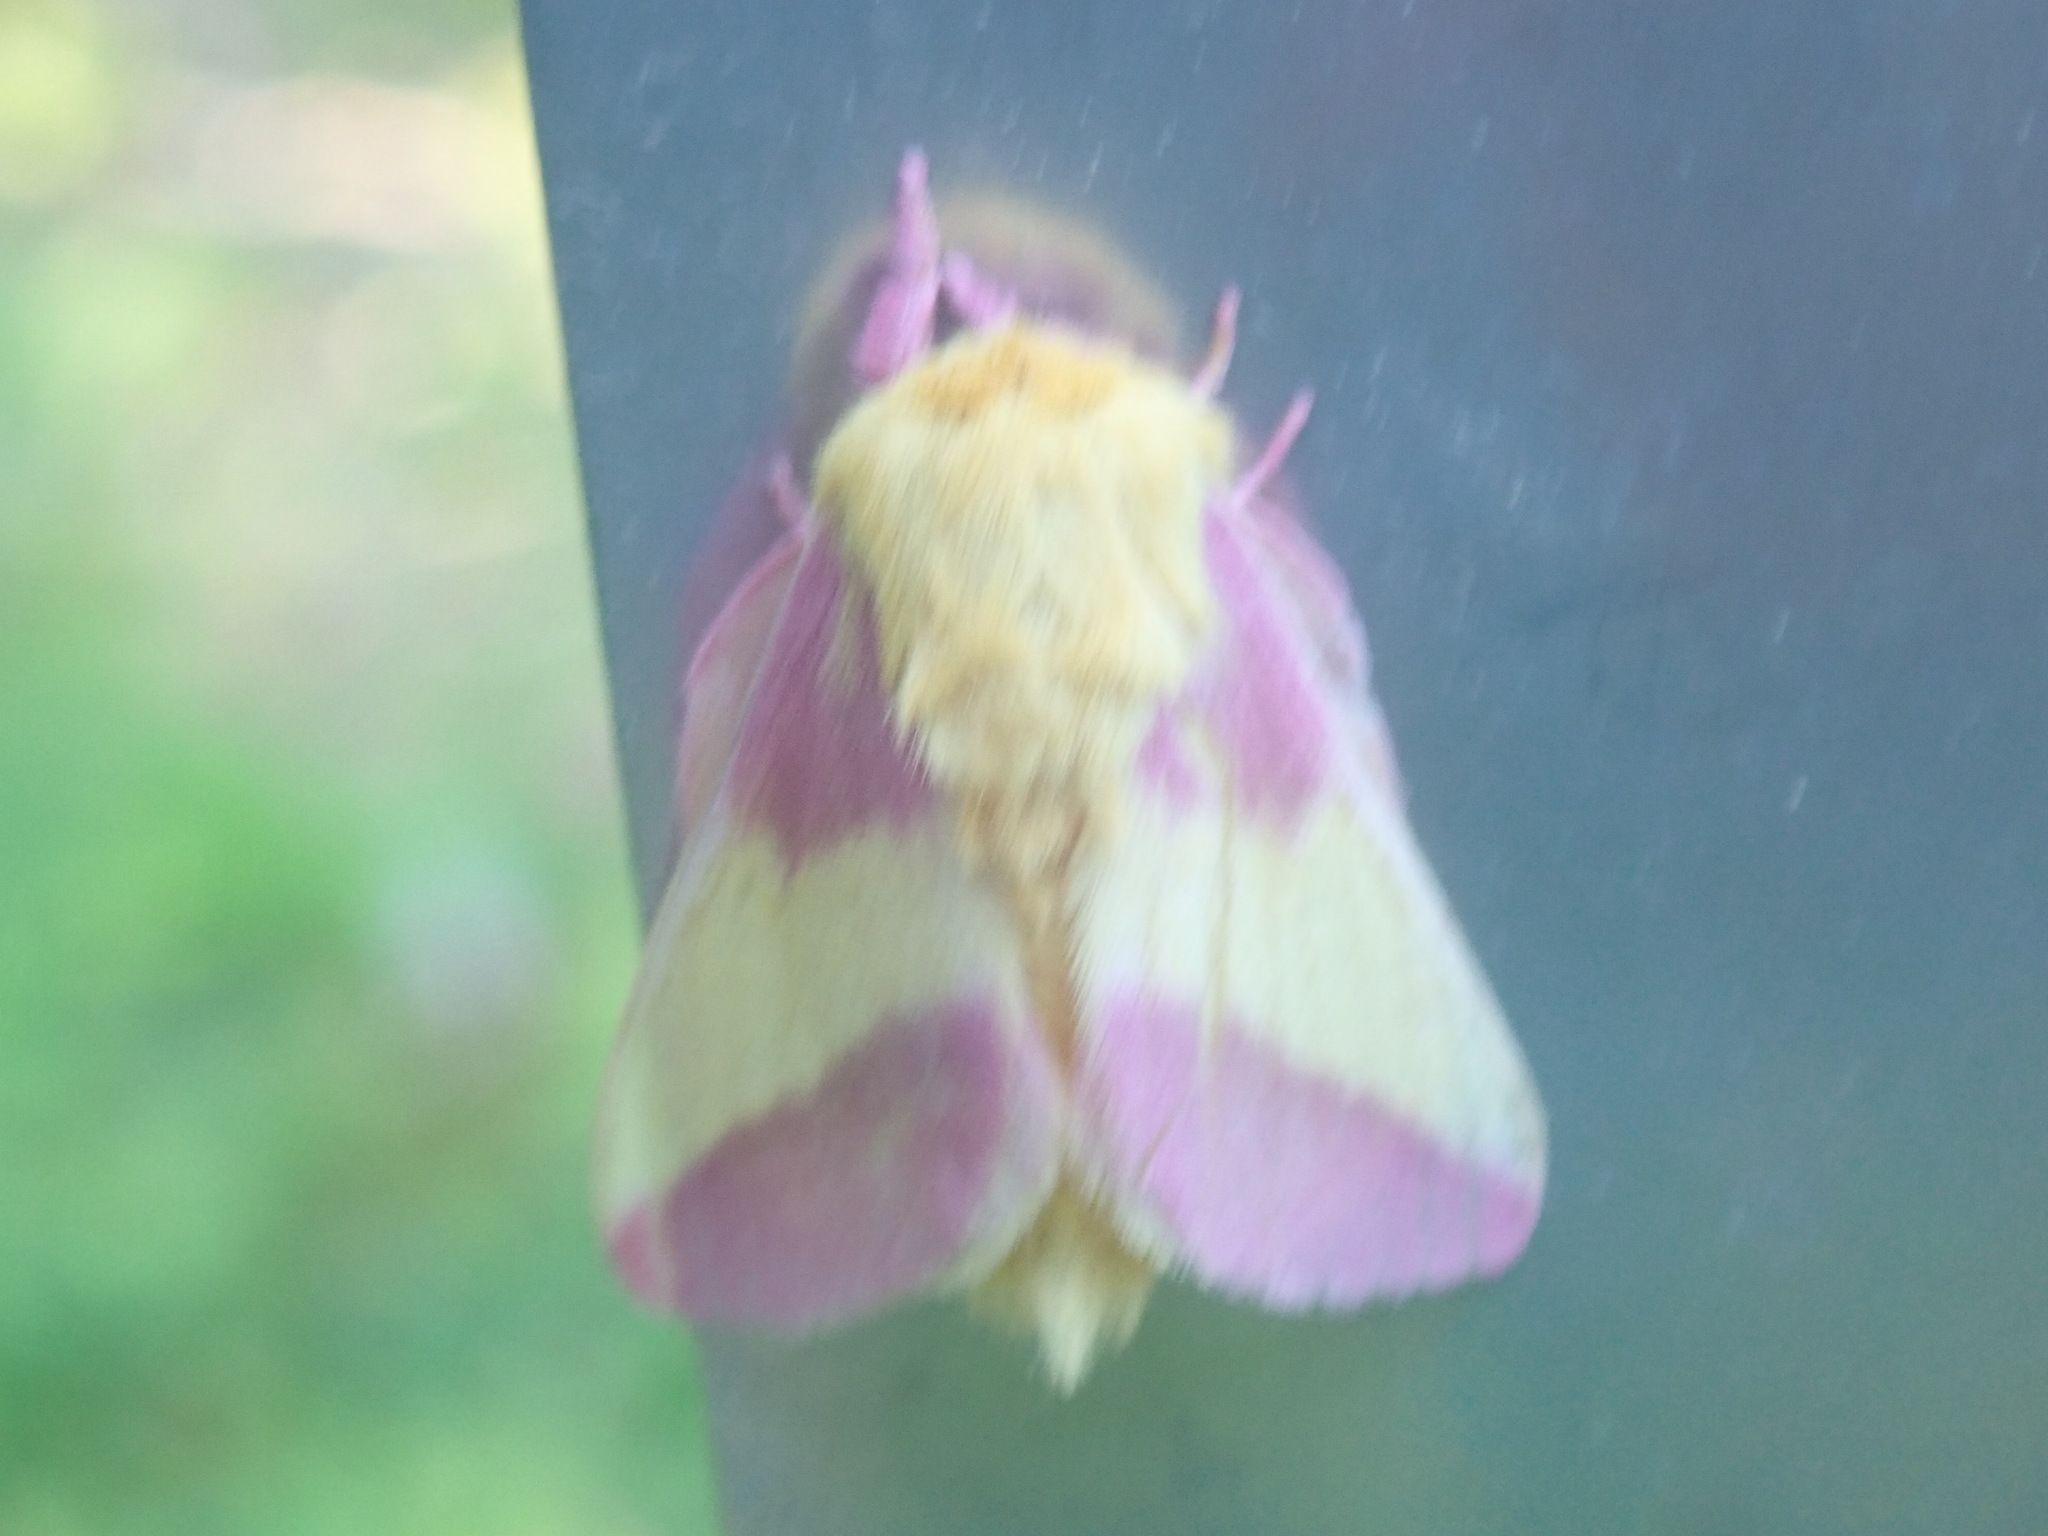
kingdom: Animalia
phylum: Arthropoda
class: Insecta
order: Lepidoptera
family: Saturniidae
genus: Dryocampa
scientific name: Dryocampa rubicunda
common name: Rosy maple moth
